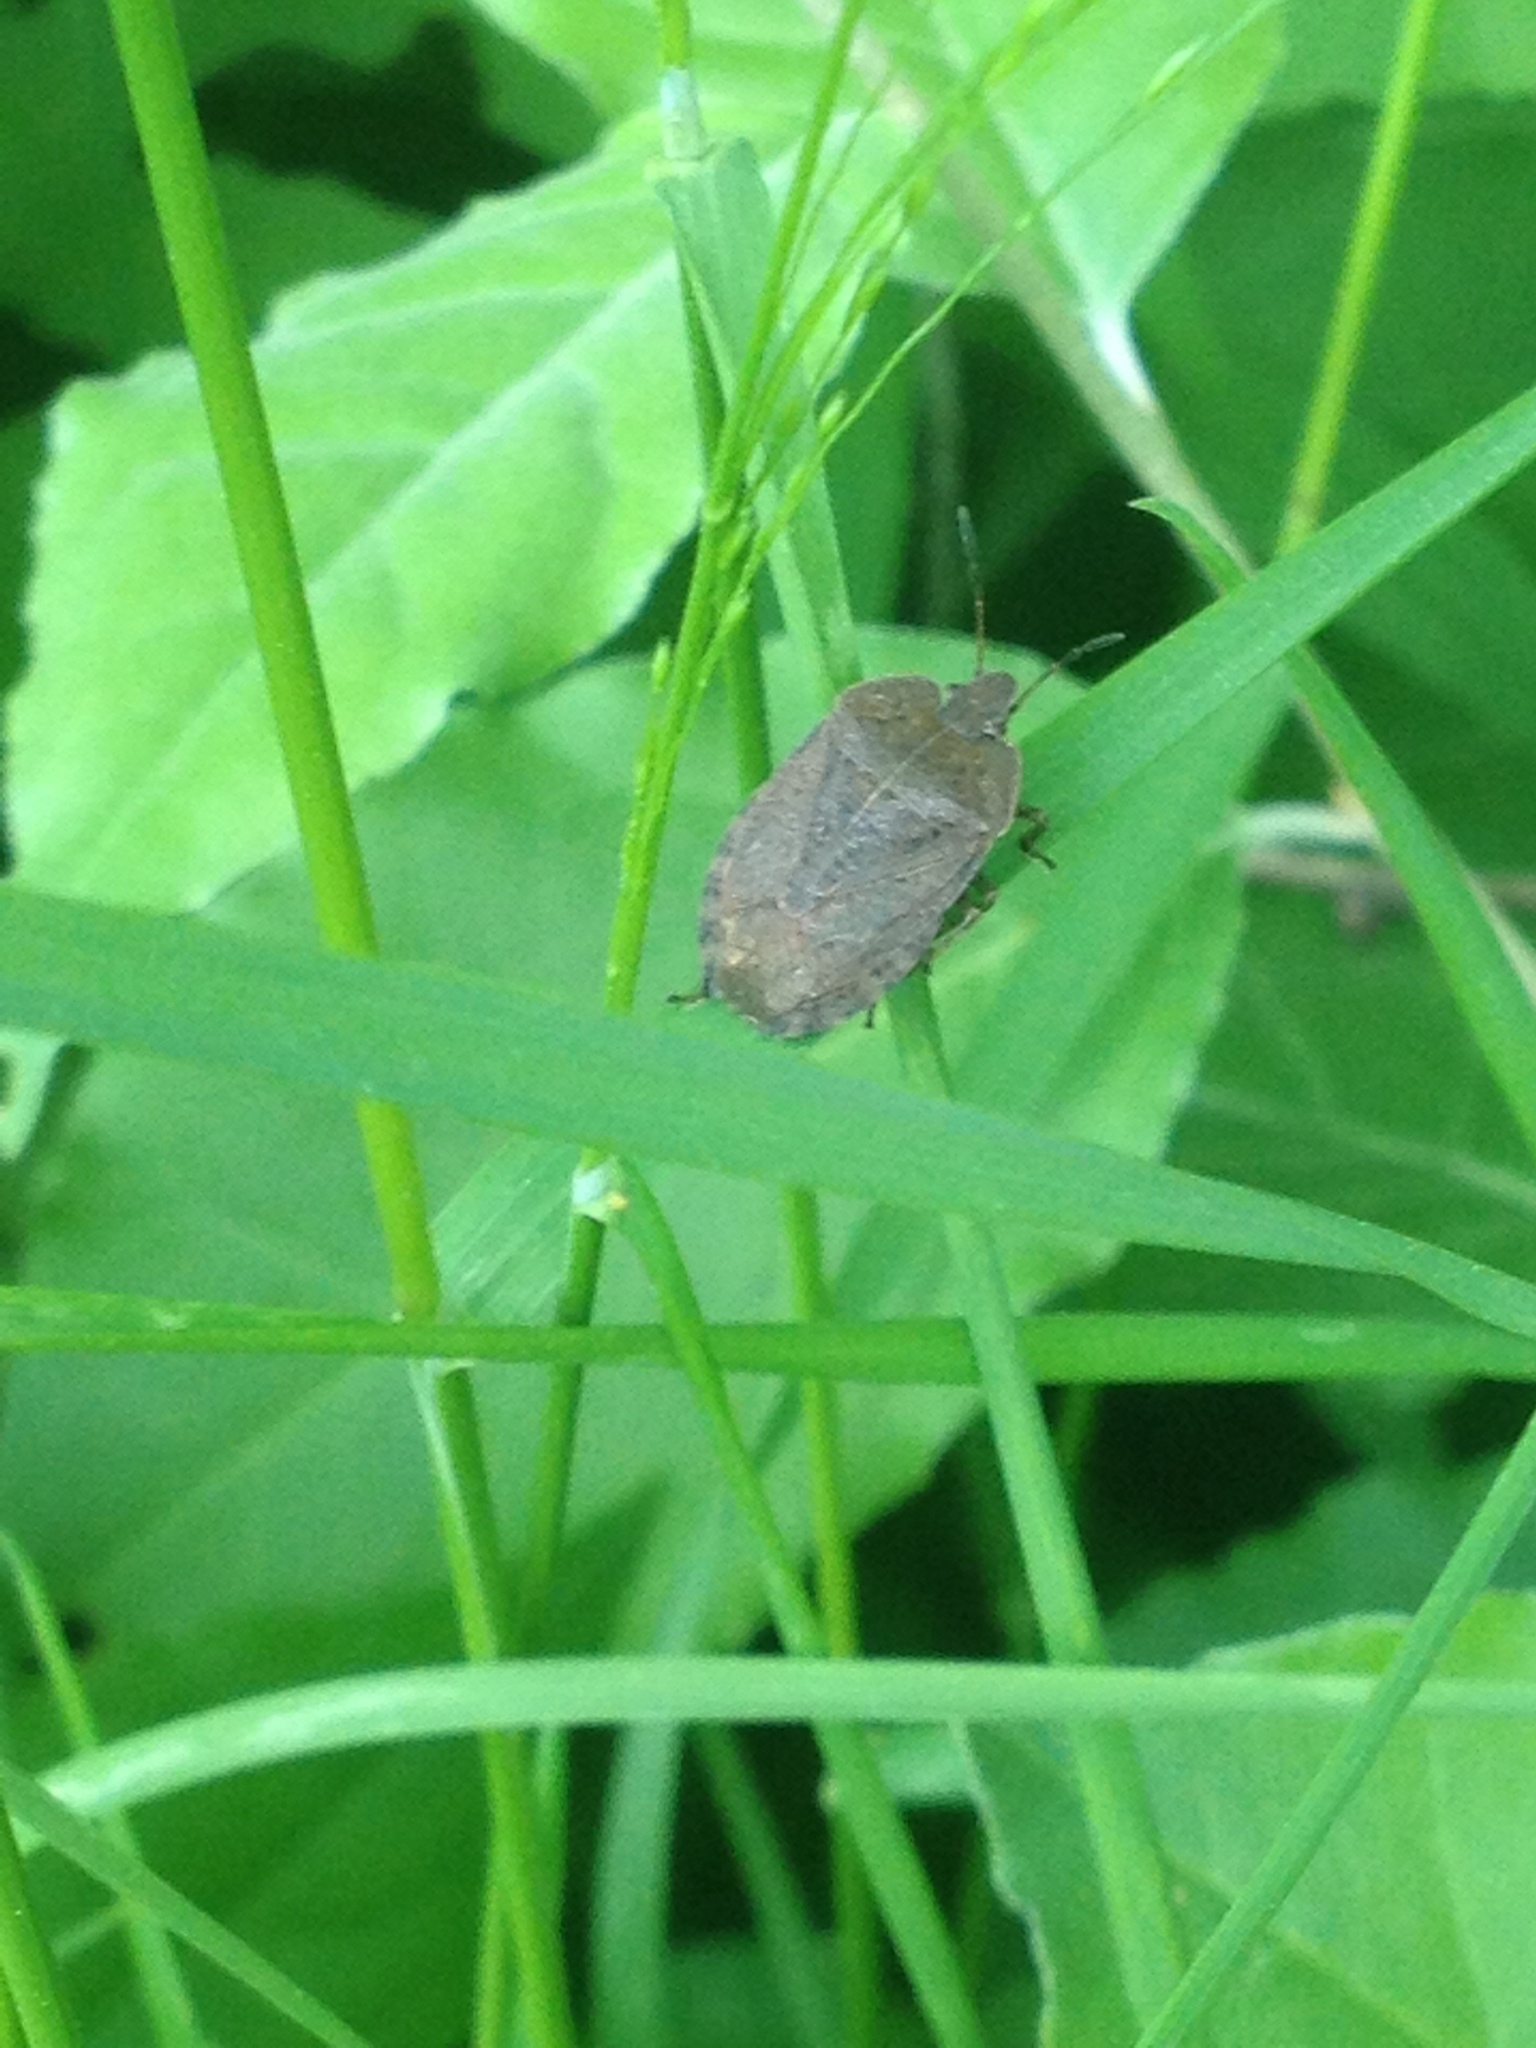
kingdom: Animalia
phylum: Arthropoda
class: Insecta
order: Hemiptera
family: Pentatomidae
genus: Menecles
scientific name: Menecles insertus
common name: Elf shoe stink bug
